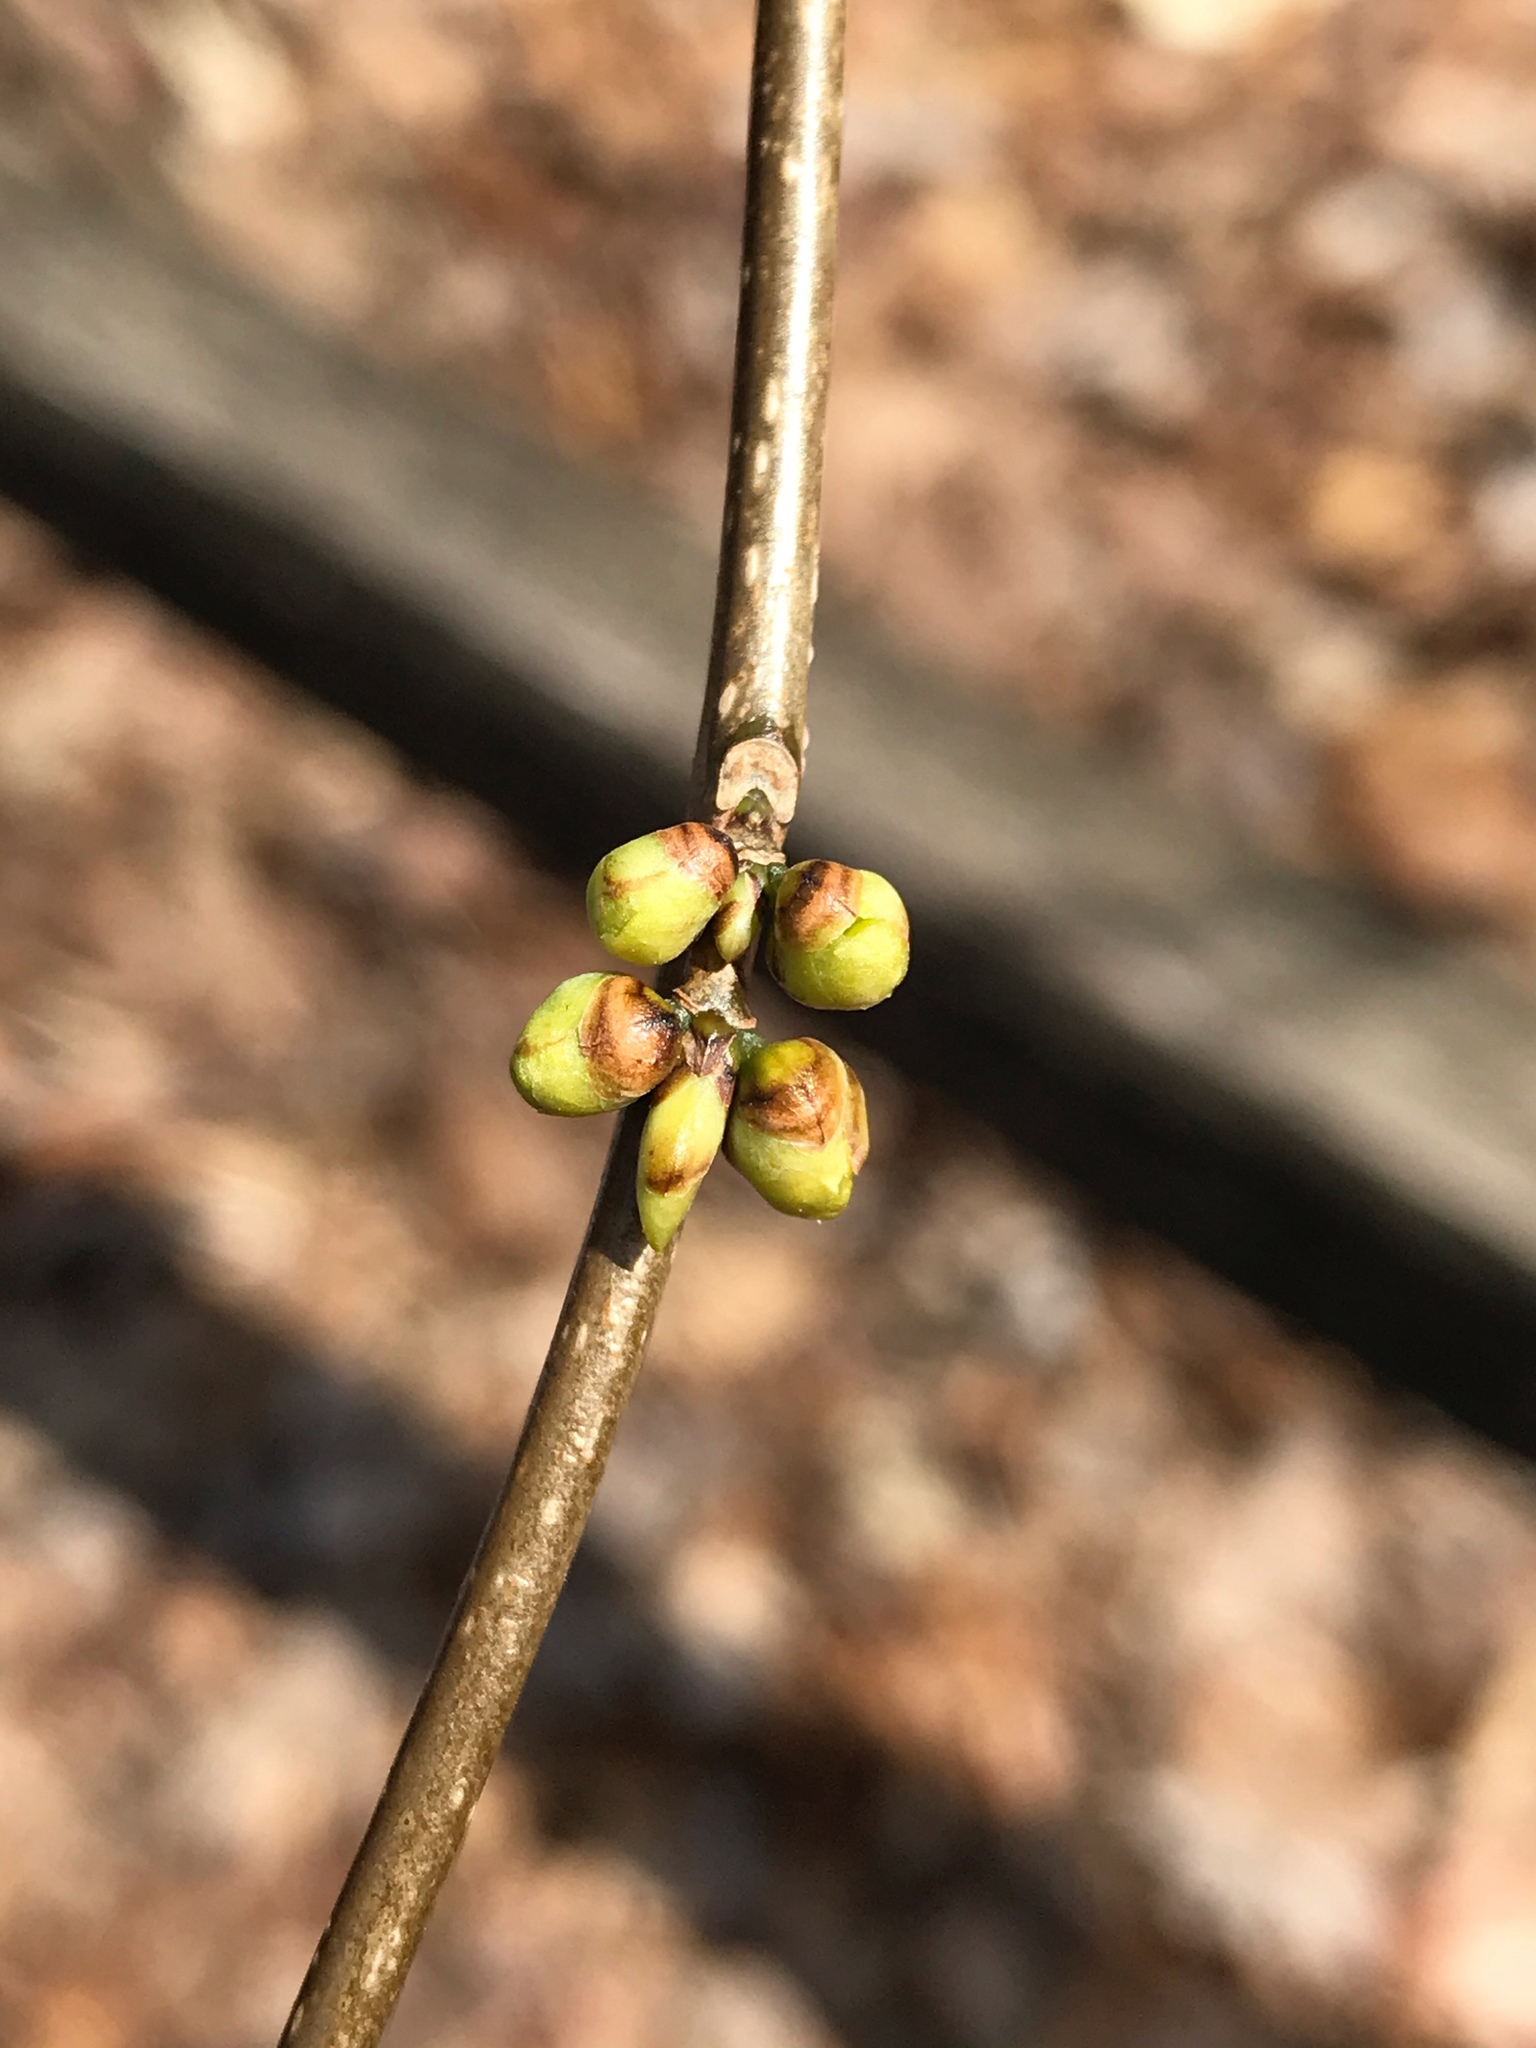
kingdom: Plantae
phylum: Tracheophyta
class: Magnoliopsida
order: Laurales
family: Lauraceae
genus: Lindera
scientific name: Lindera benzoin
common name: Spicebush
